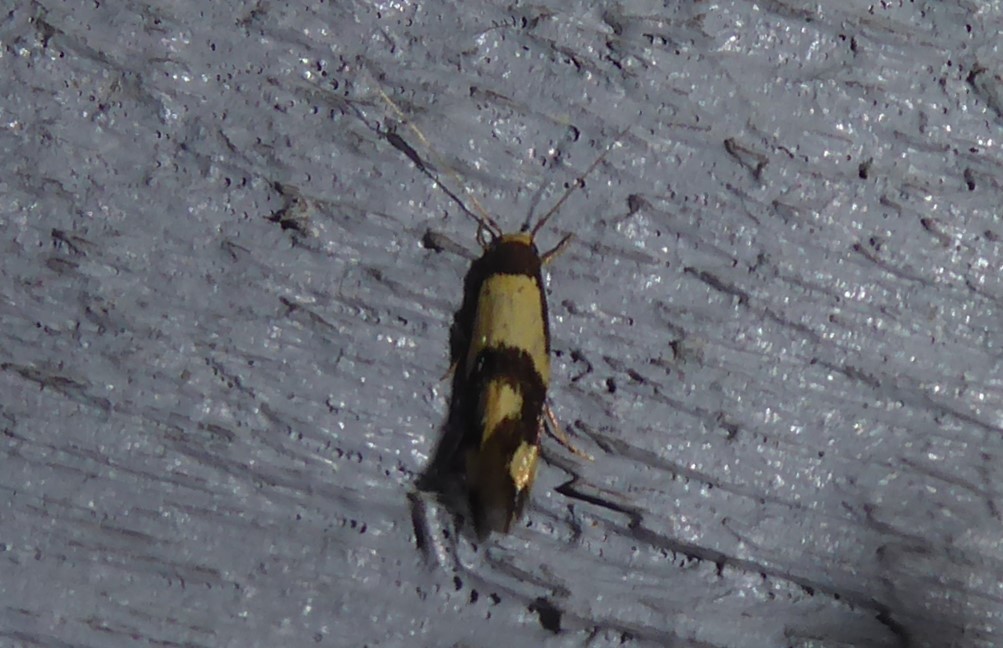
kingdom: Animalia
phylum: Arthropoda
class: Insecta
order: Lepidoptera
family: Tineidae
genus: Opogona
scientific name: Opogona comptella
